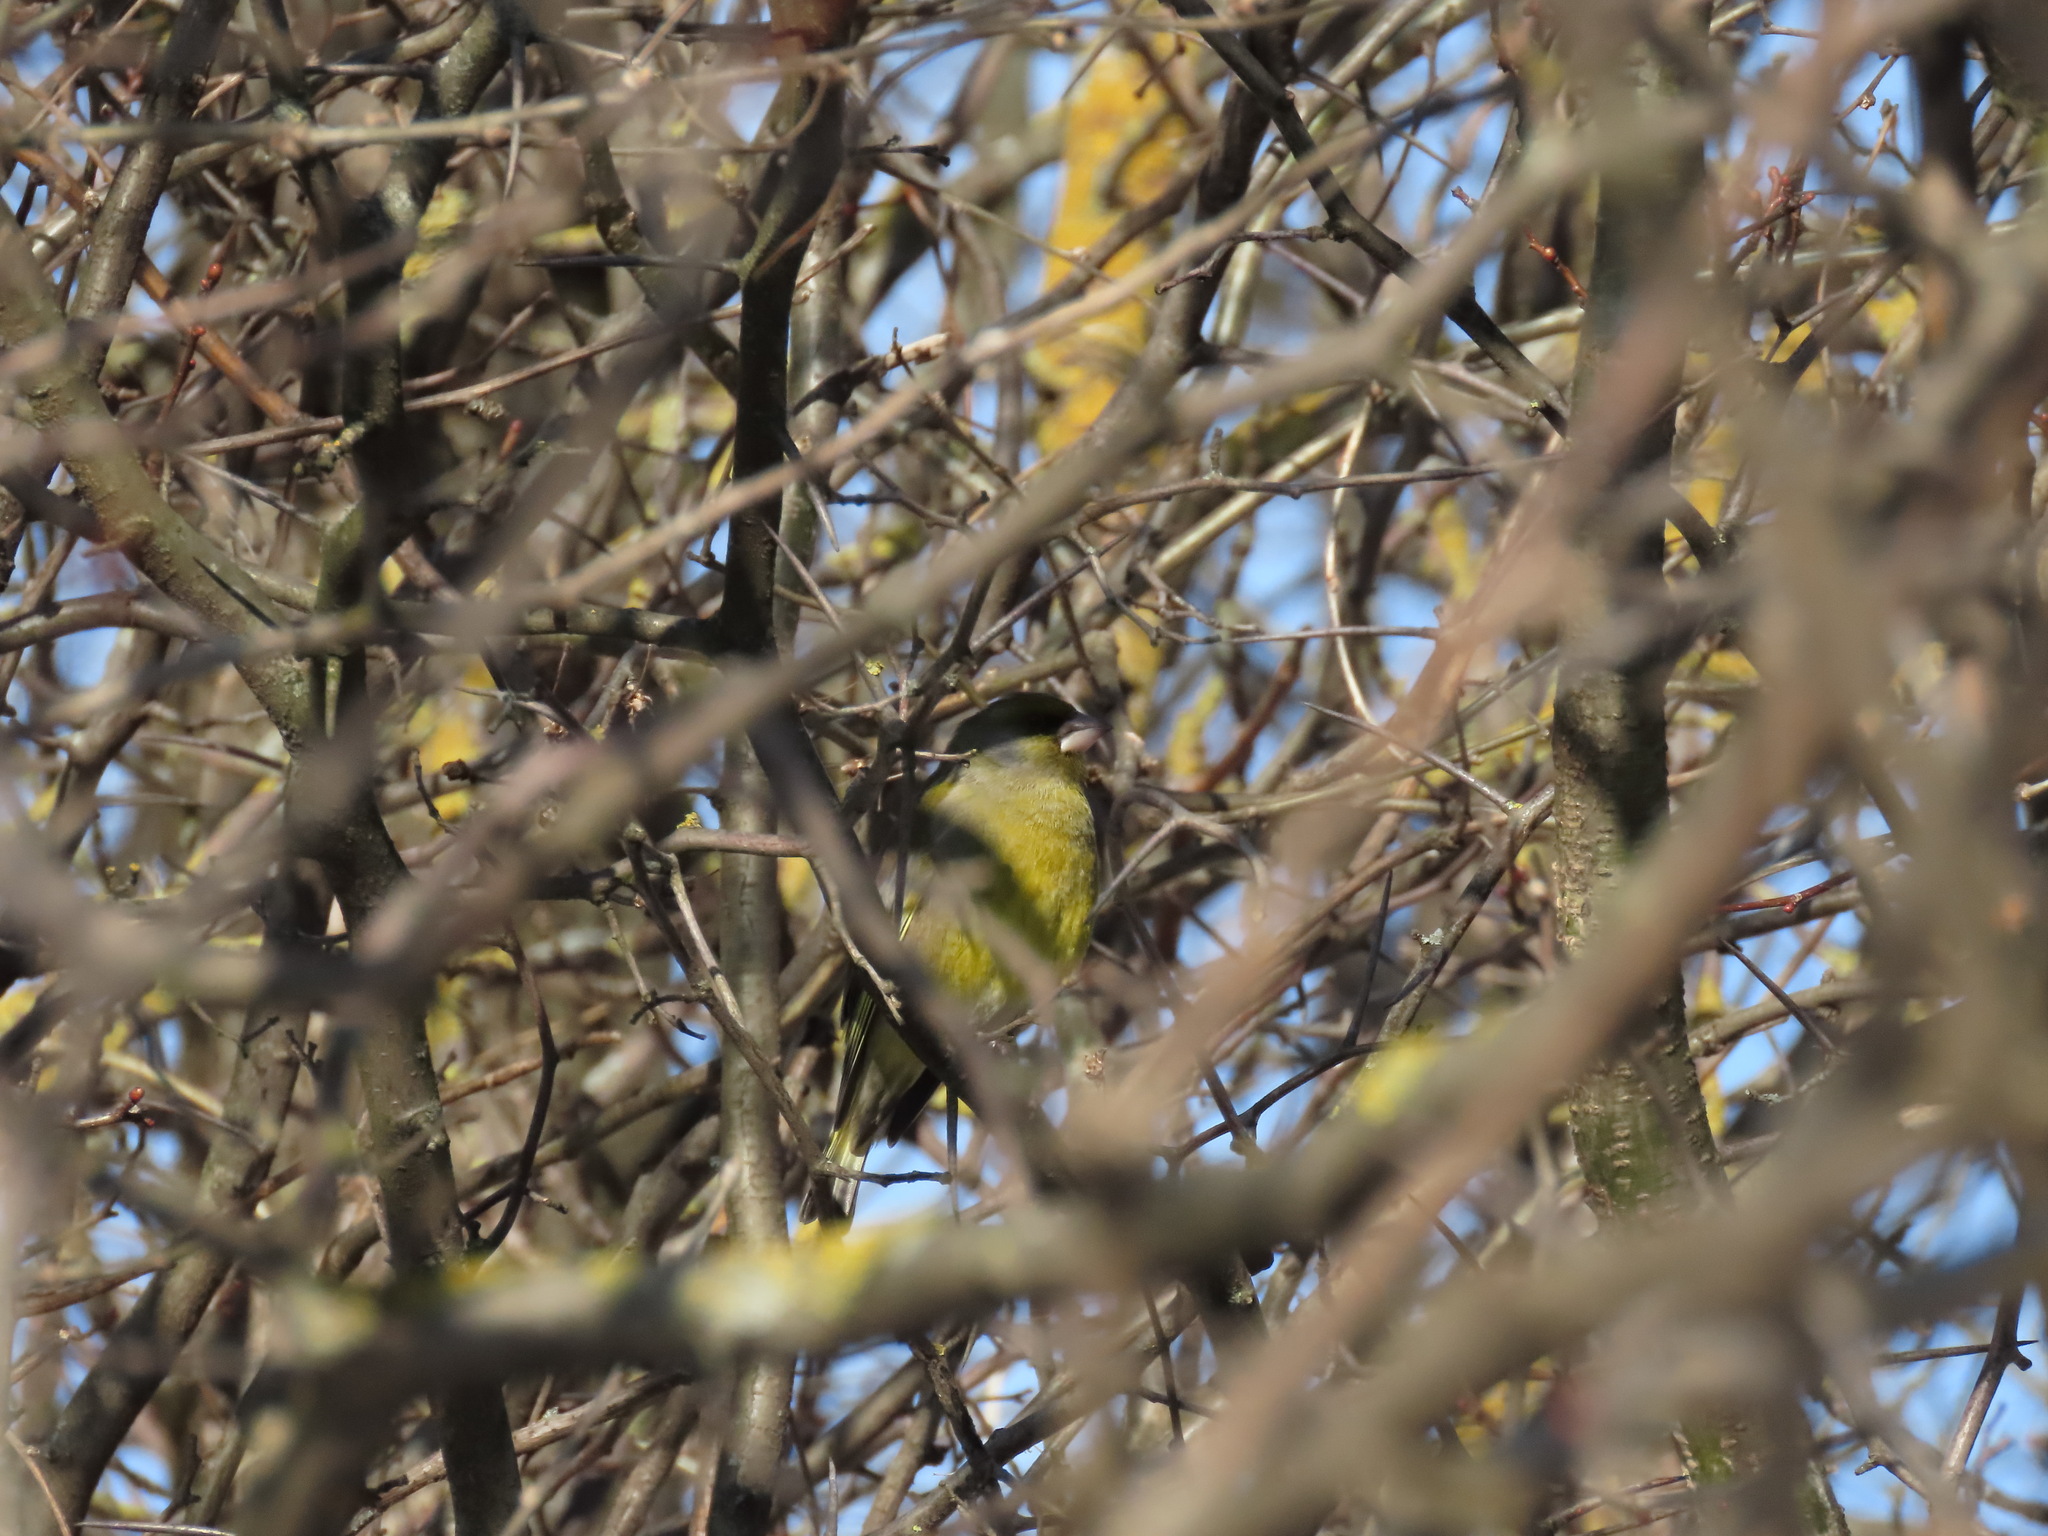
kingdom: Plantae
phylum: Tracheophyta
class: Liliopsida
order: Poales
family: Poaceae
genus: Chloris
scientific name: Chloris chloris
